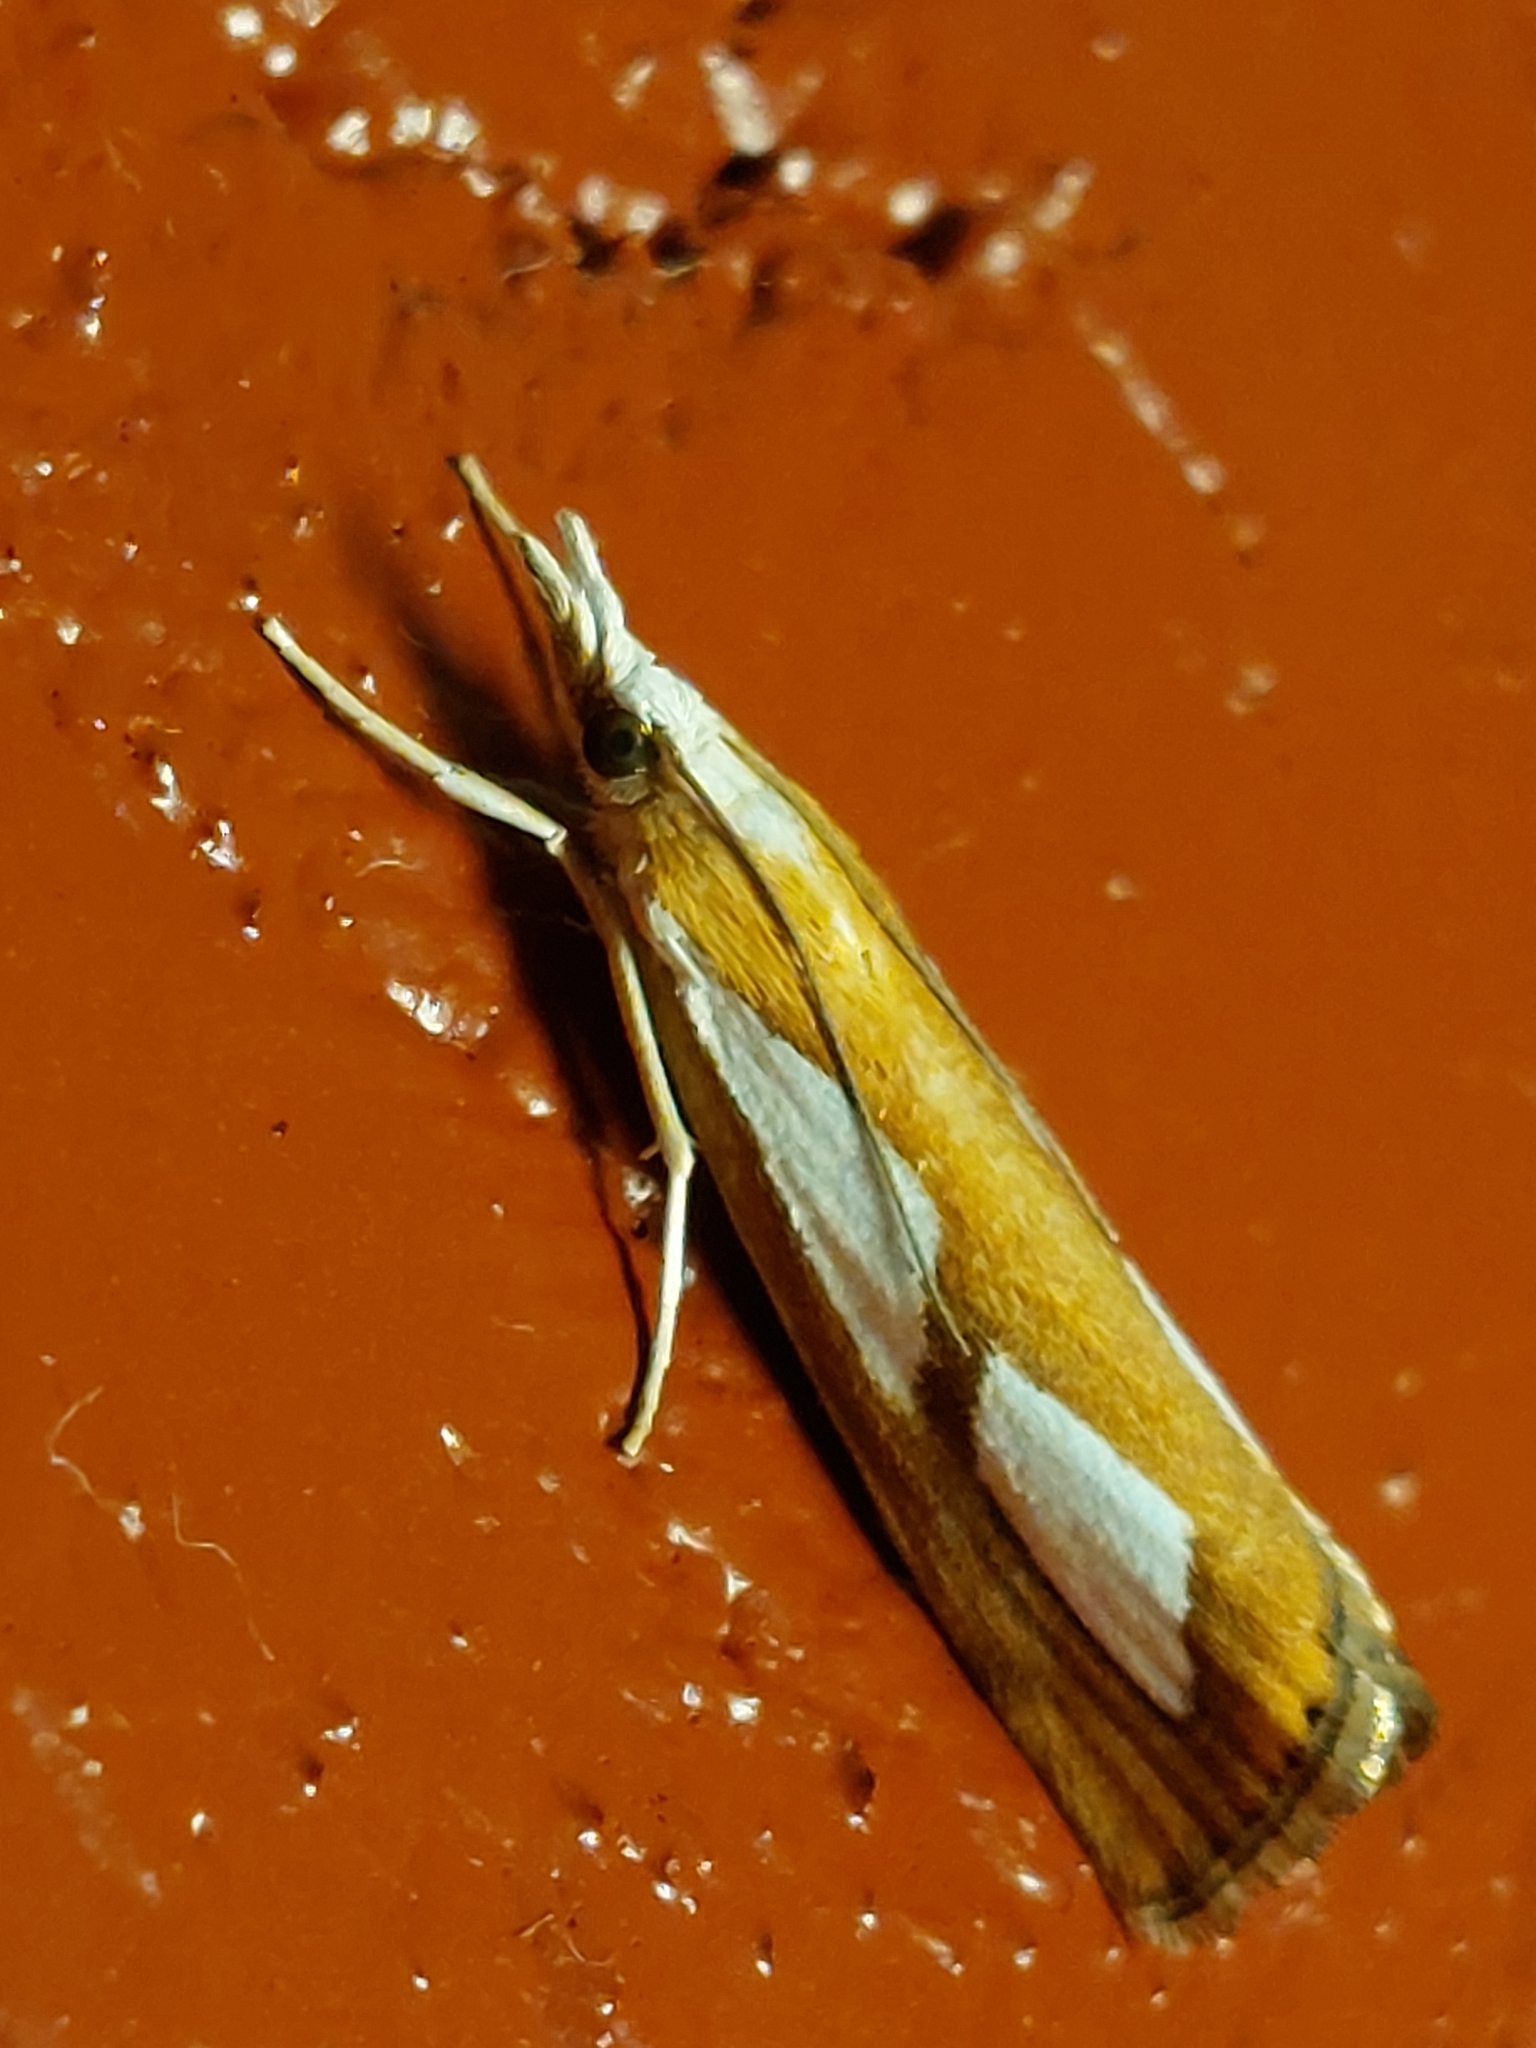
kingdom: Animalia
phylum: Arthropoda
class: Insecta
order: Lepidoptera
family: Crambidae
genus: Catoptria
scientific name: Catoptria pinella
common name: Pearl grass-veneer
